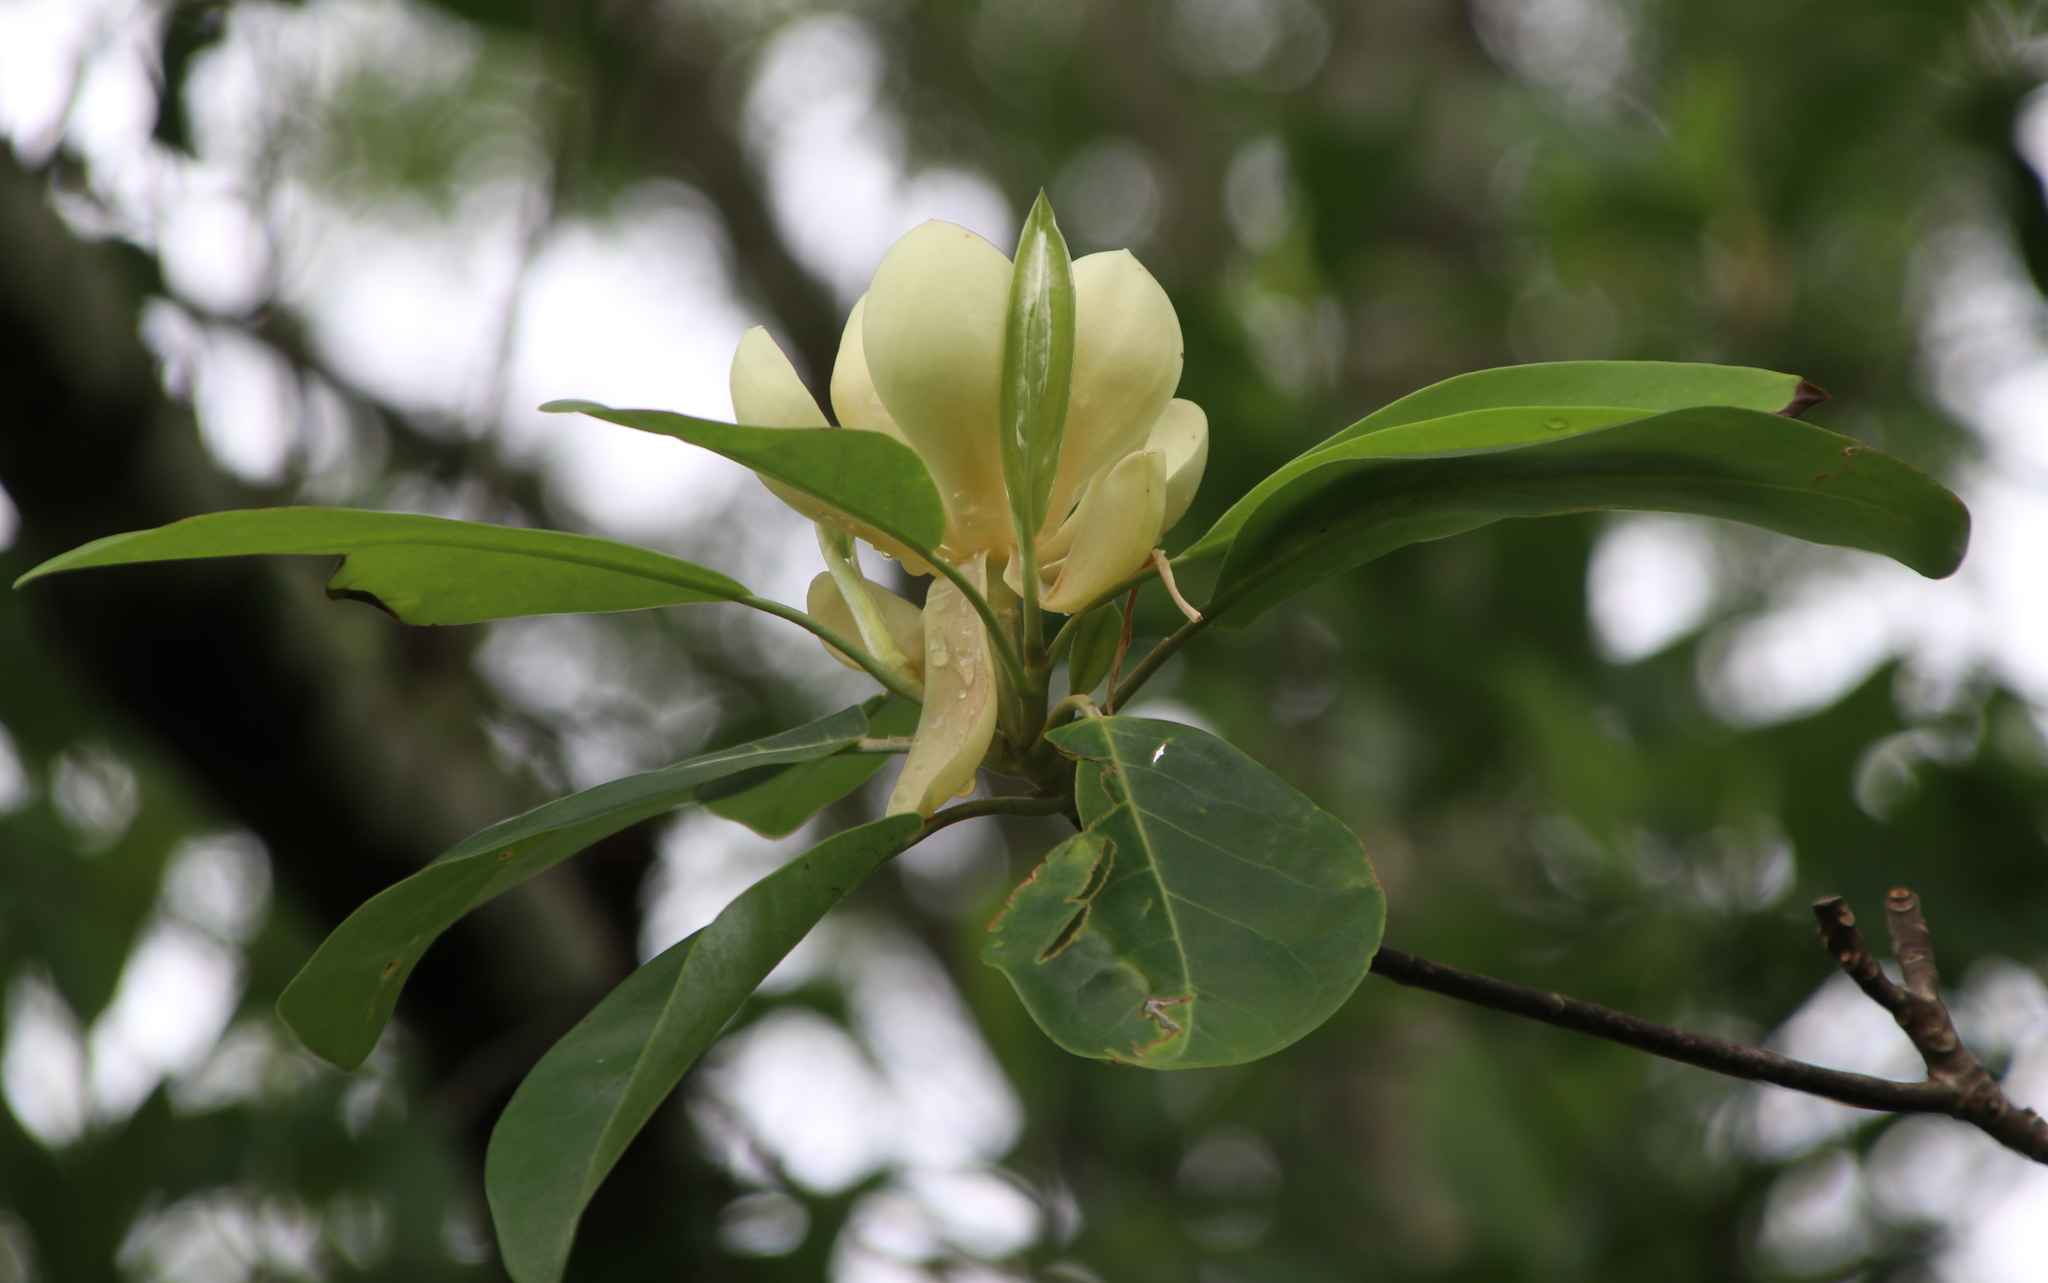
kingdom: Plantae
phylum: Tracheophyta
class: Magnoliopsida
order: Magnoliales
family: Magnoliaceae
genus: Magnolia
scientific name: Magnolia virginiana
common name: Swamp bay
